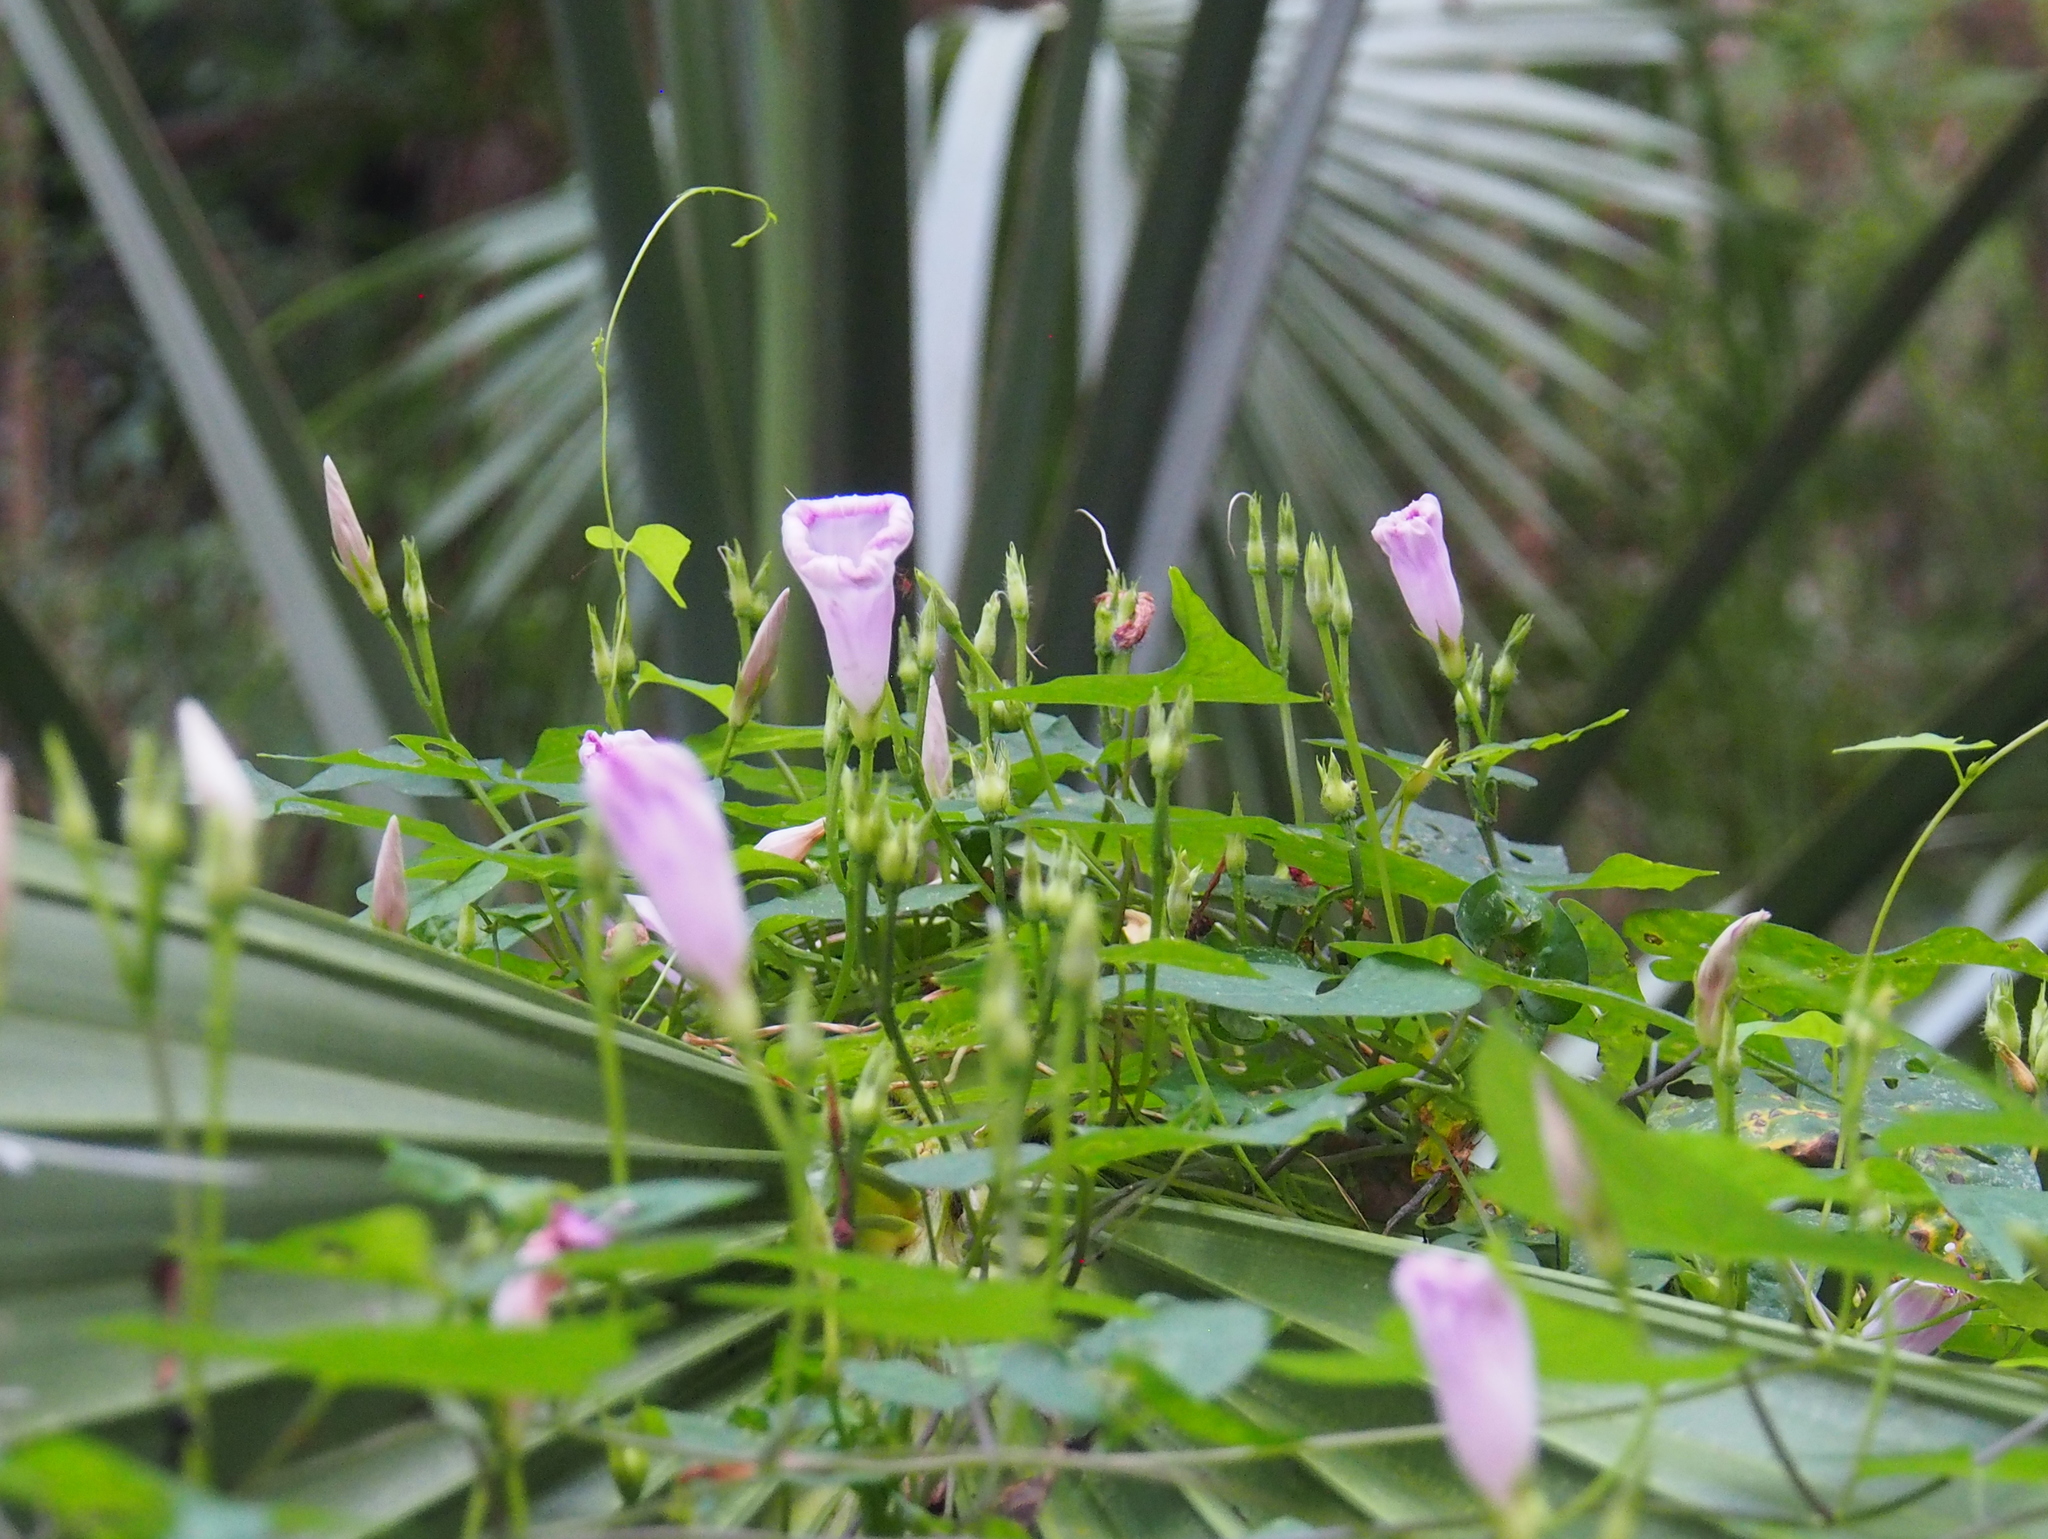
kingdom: Plantae
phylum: Tracheophyta
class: Magnoliopsida
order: Solanales
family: Convolvulaceae
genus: Ipomoea
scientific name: Ipomoea cordatotriloba
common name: Cotton morning glory
